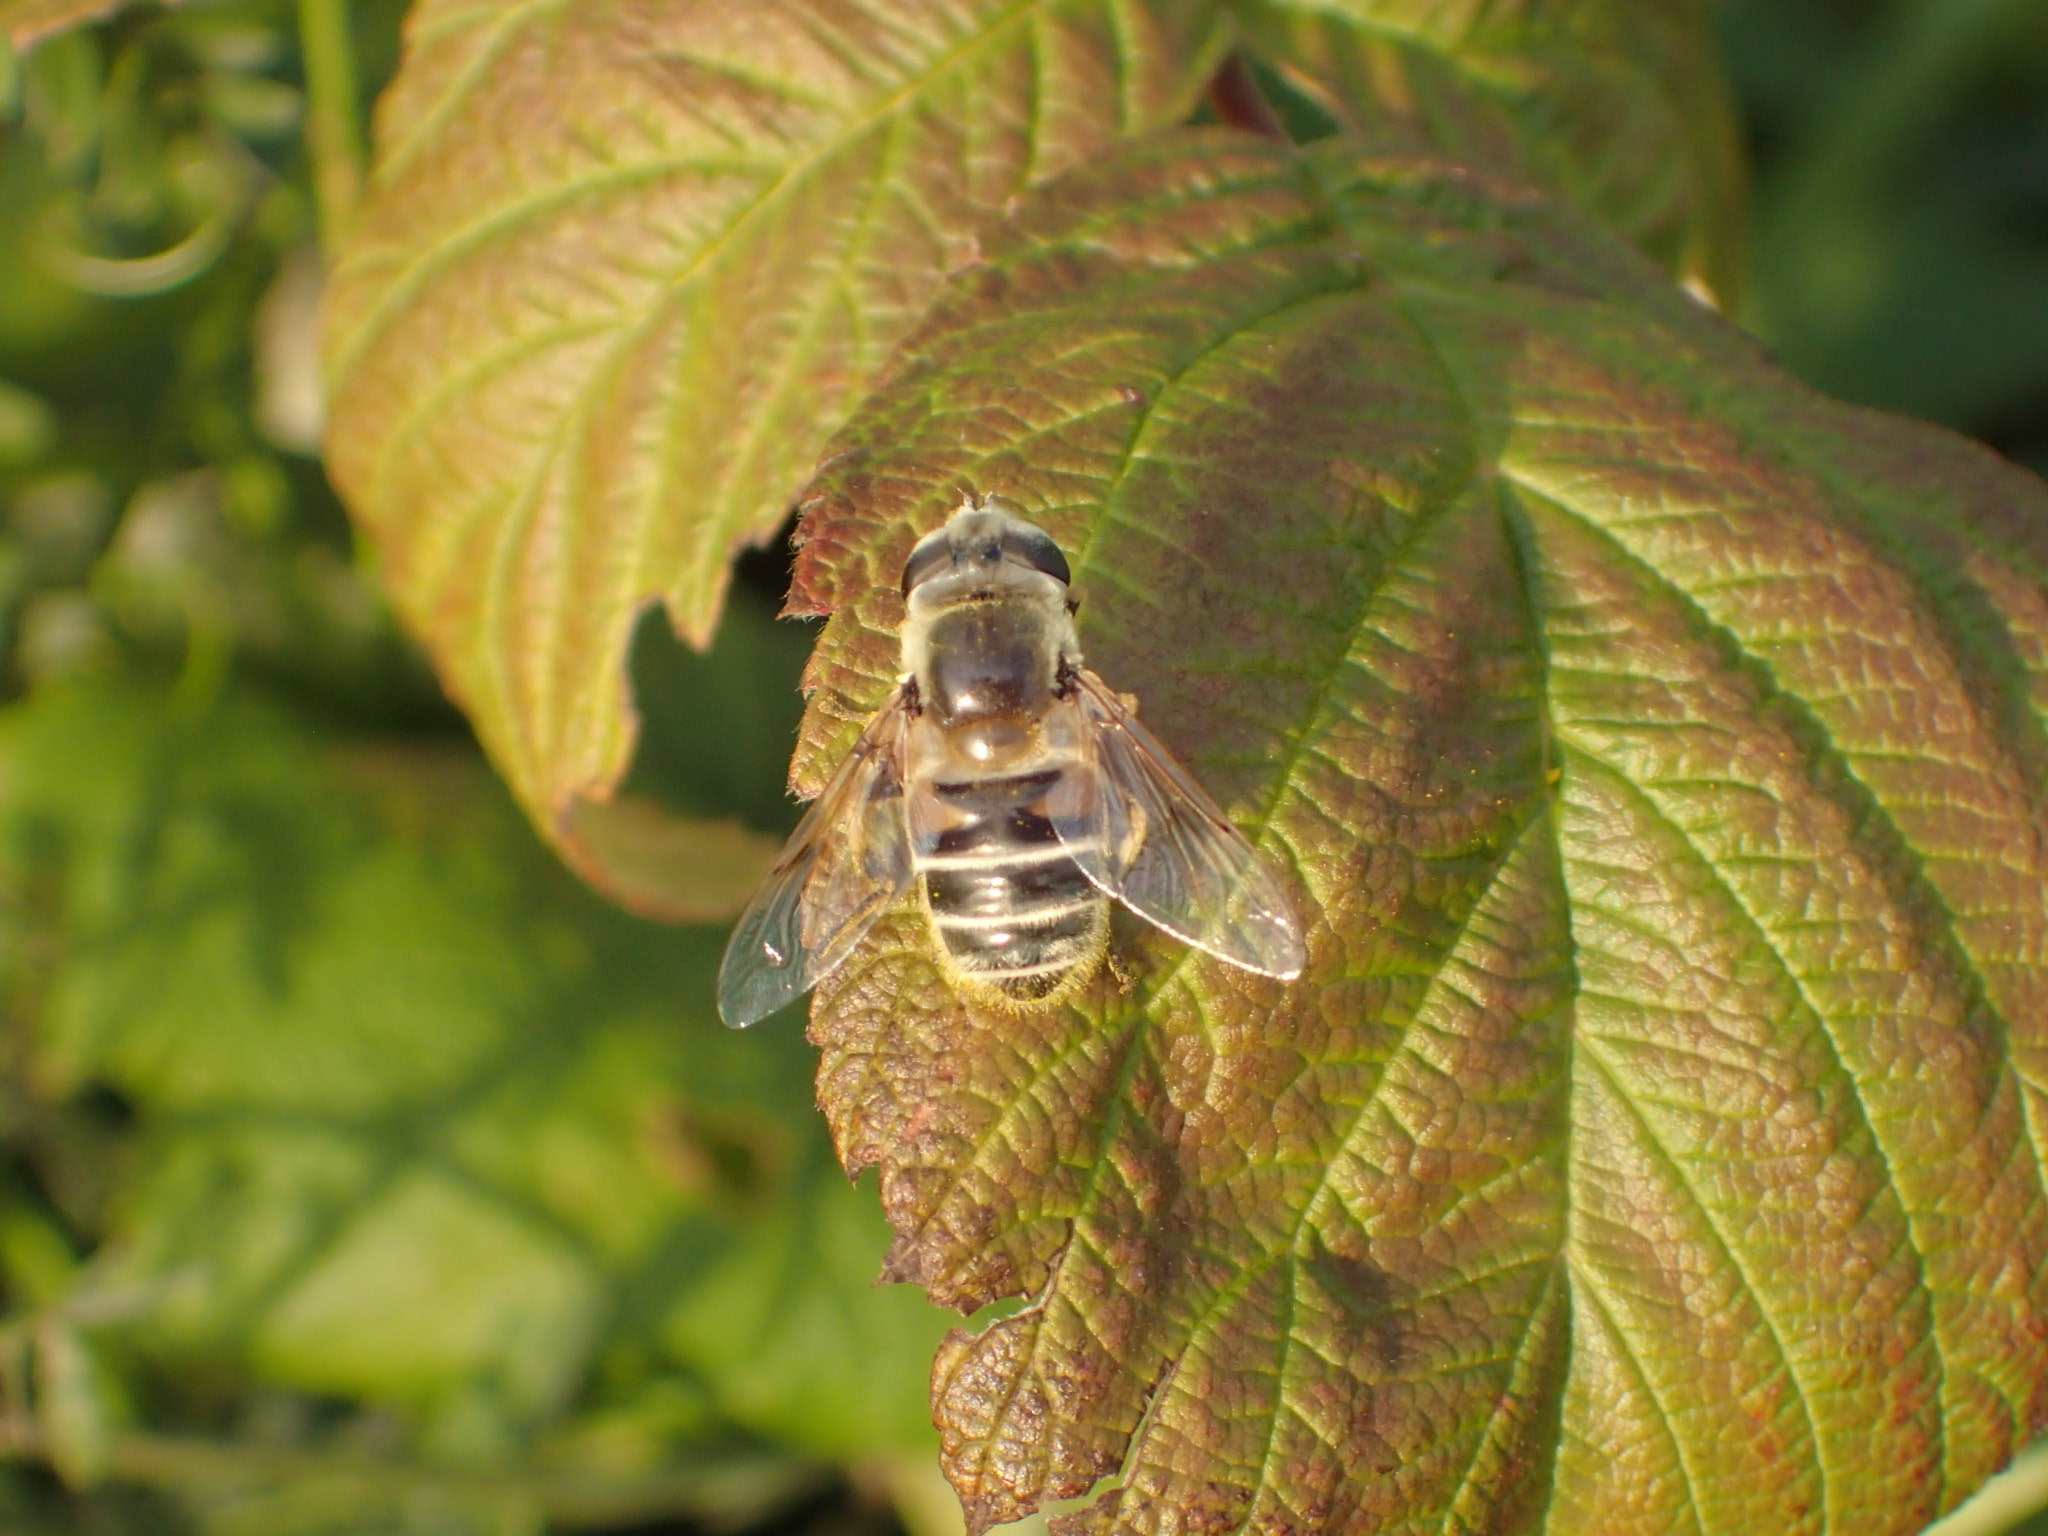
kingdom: Animalia
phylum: Arthropoda
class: Insecta
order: Diptera
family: Syrphidae
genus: Eristalis
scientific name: Eristalis stipator
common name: Yellow-shouldered drone fly
